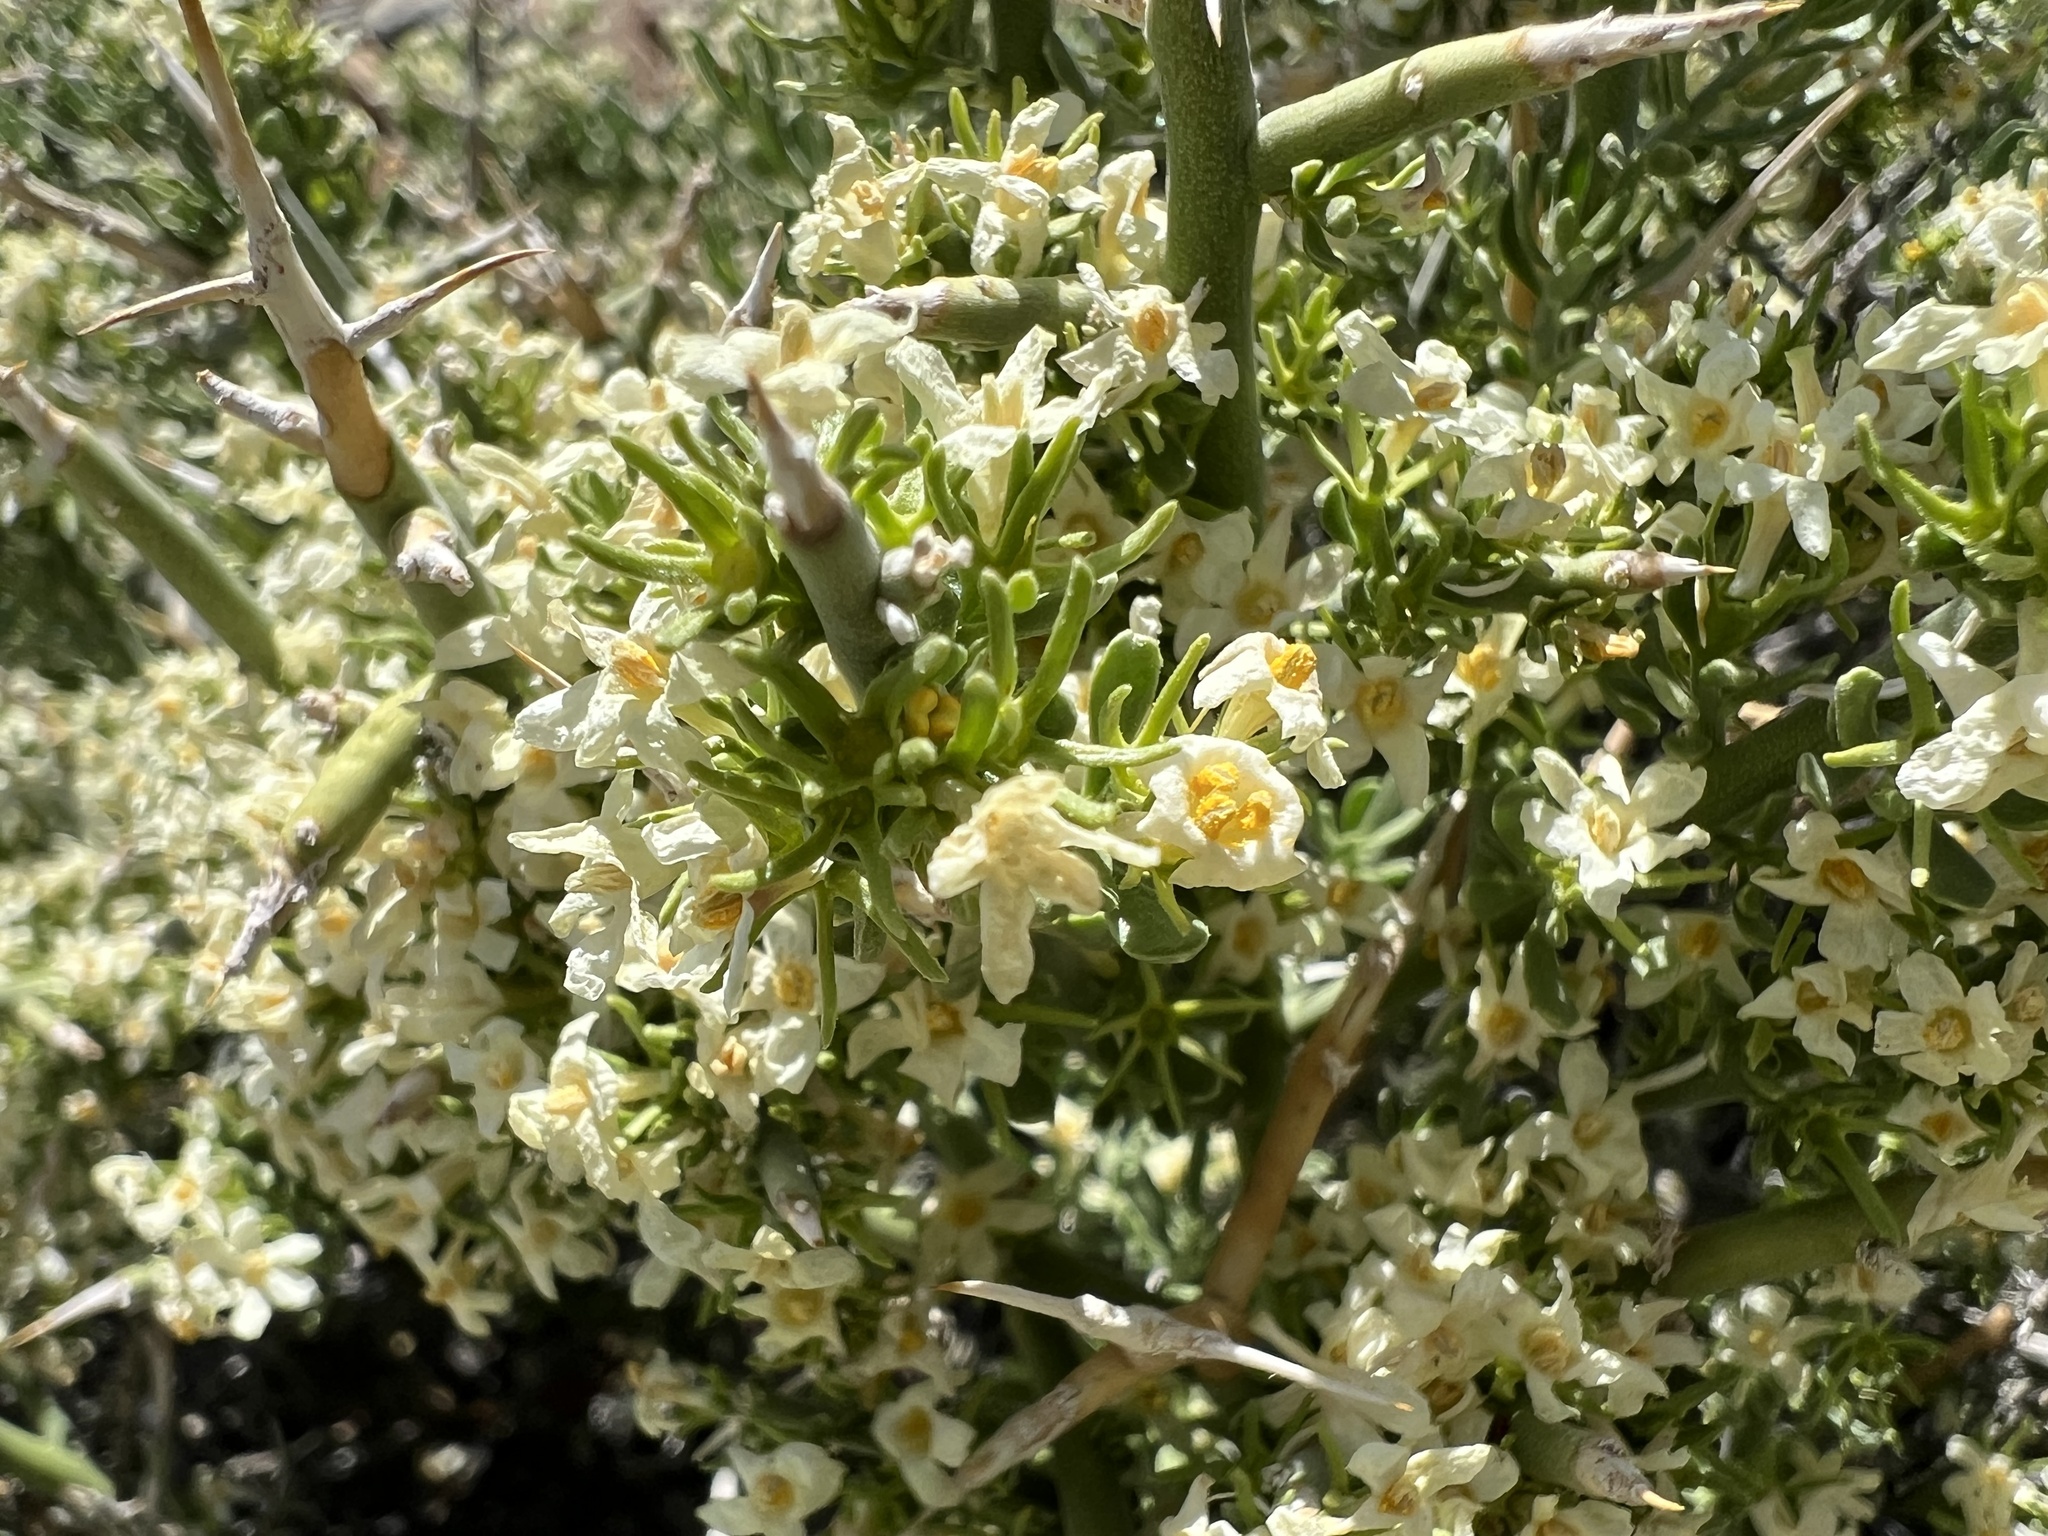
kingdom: Plantae
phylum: Tracheophyta
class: Magnoliopsida
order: Lamiales
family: Oleaceae
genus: Menodora
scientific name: Menodora spinescens
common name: Spiny menodora
